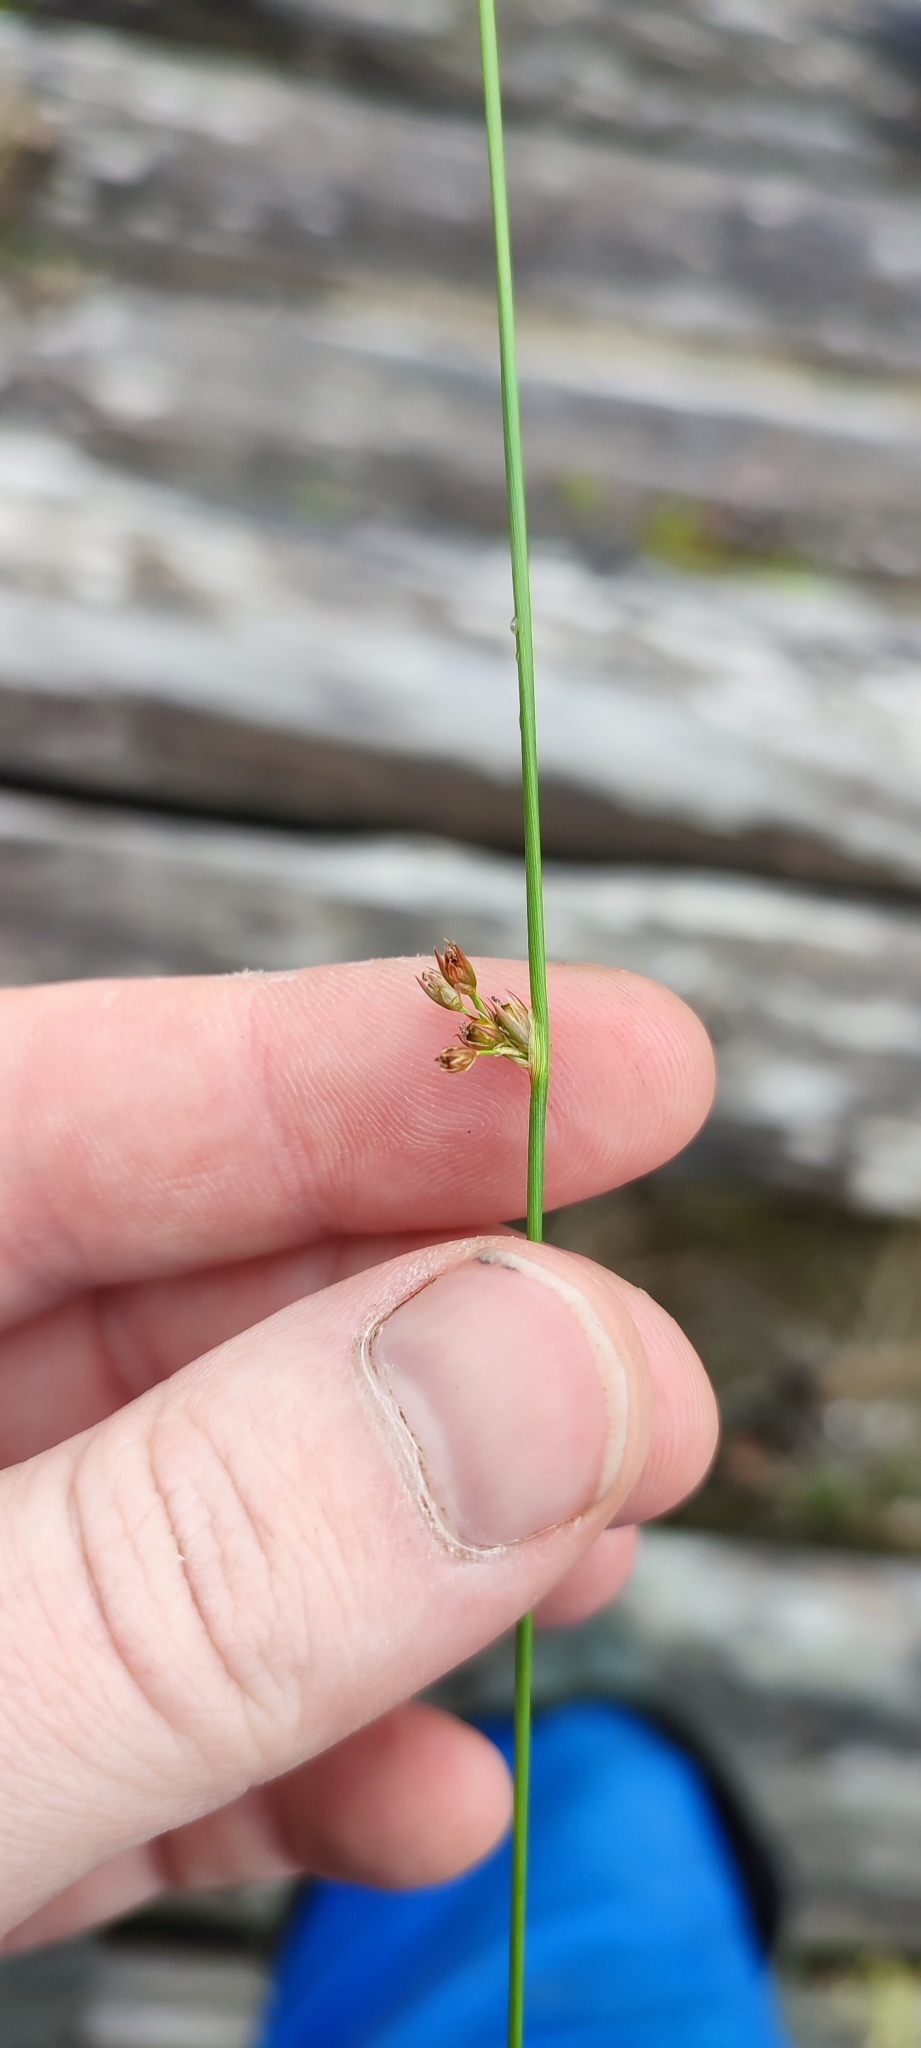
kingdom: Plantae
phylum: Tracheophyta
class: Liliopsida
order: Poales
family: Juncaceae
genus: Juncus
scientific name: Juncus filiformis
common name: Thread rush
